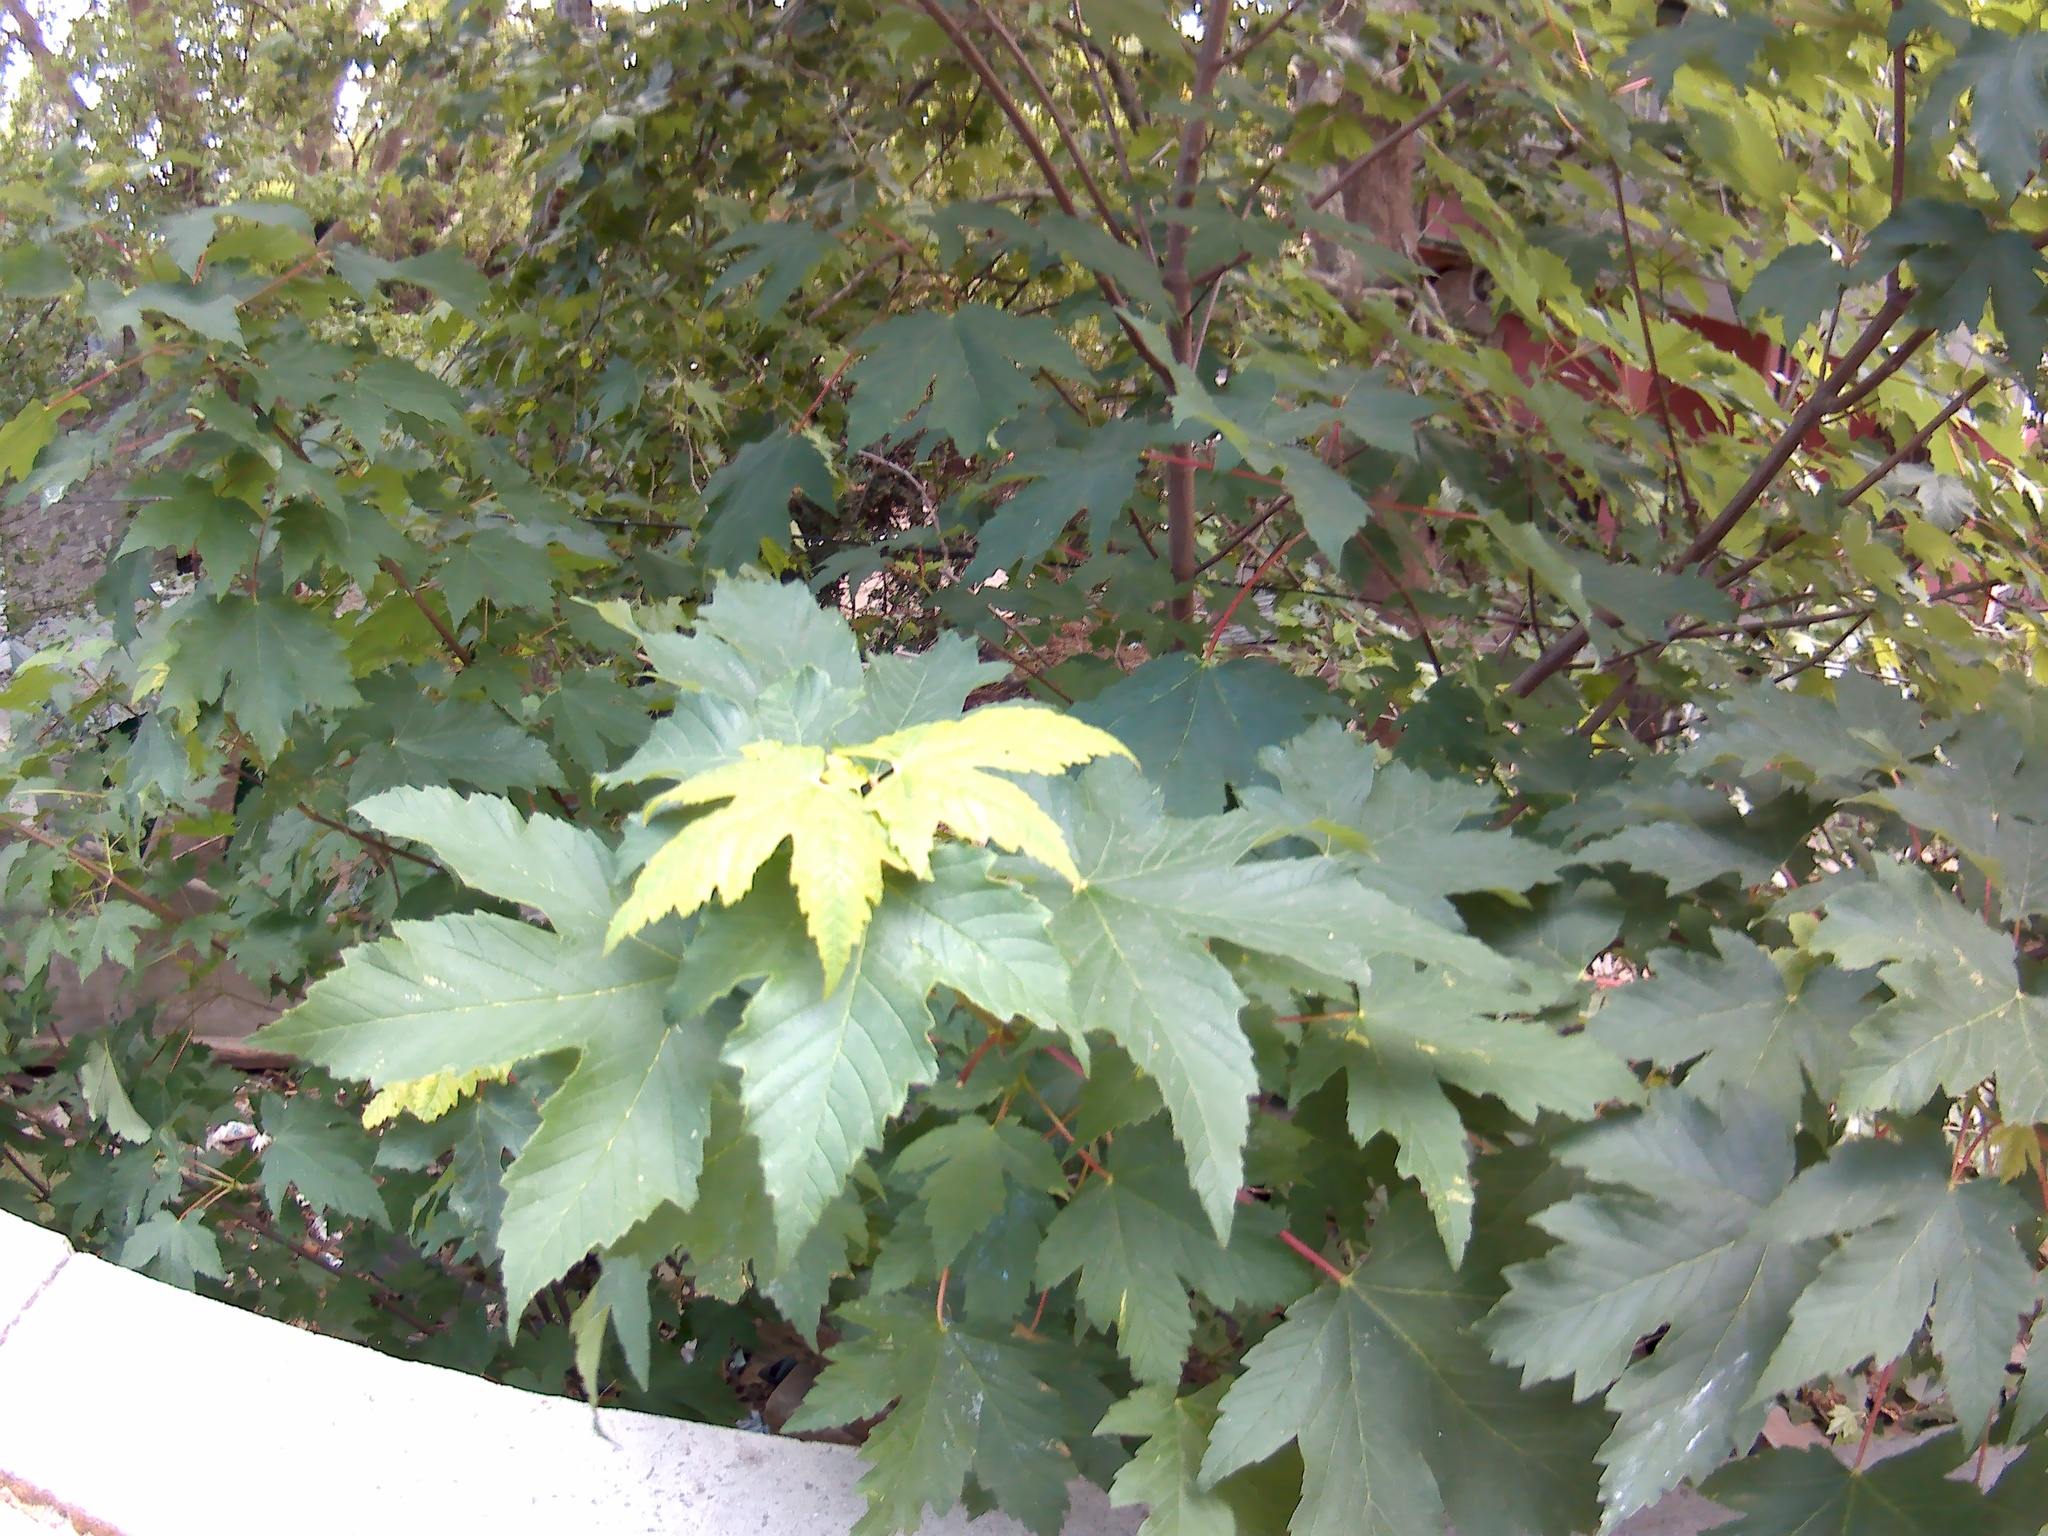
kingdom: Plantae
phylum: Tracheophyta
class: Magnoliopsida
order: Sapindales
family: Sapindaceae
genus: Acer
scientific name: Acer pseudoplatanus
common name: Sycamore
